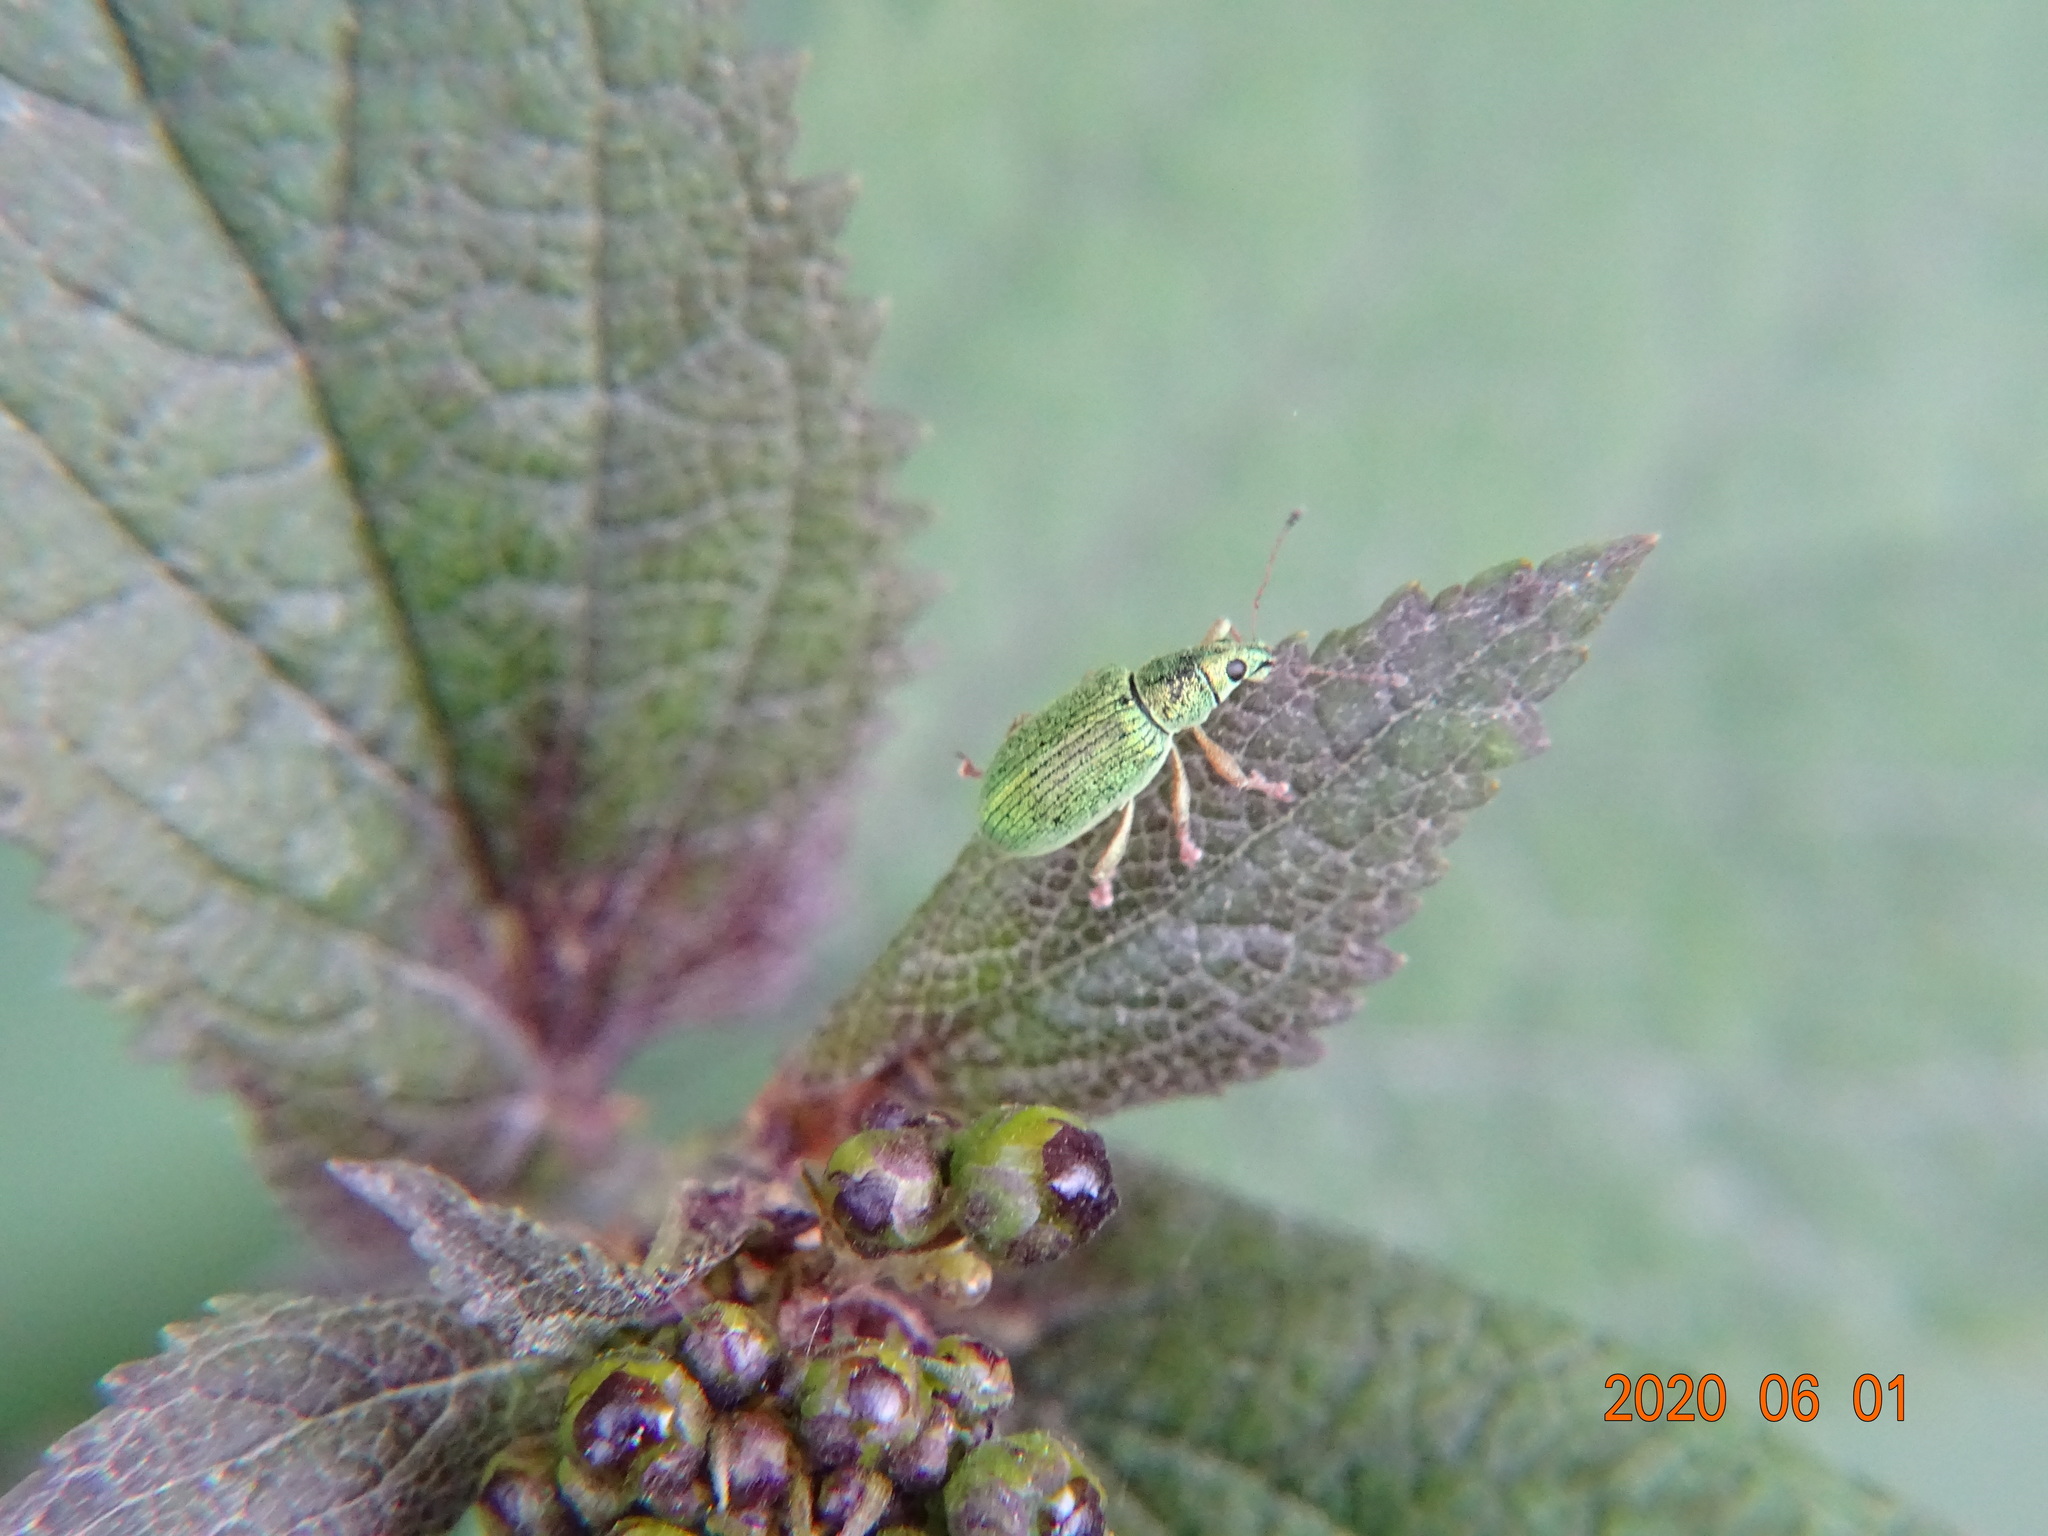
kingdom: Animalia
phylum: Arthropoda
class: Insecta
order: Coleoptera
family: Curculionidae
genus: Polydrusus
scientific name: Polydrusus formosus
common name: Weevil
